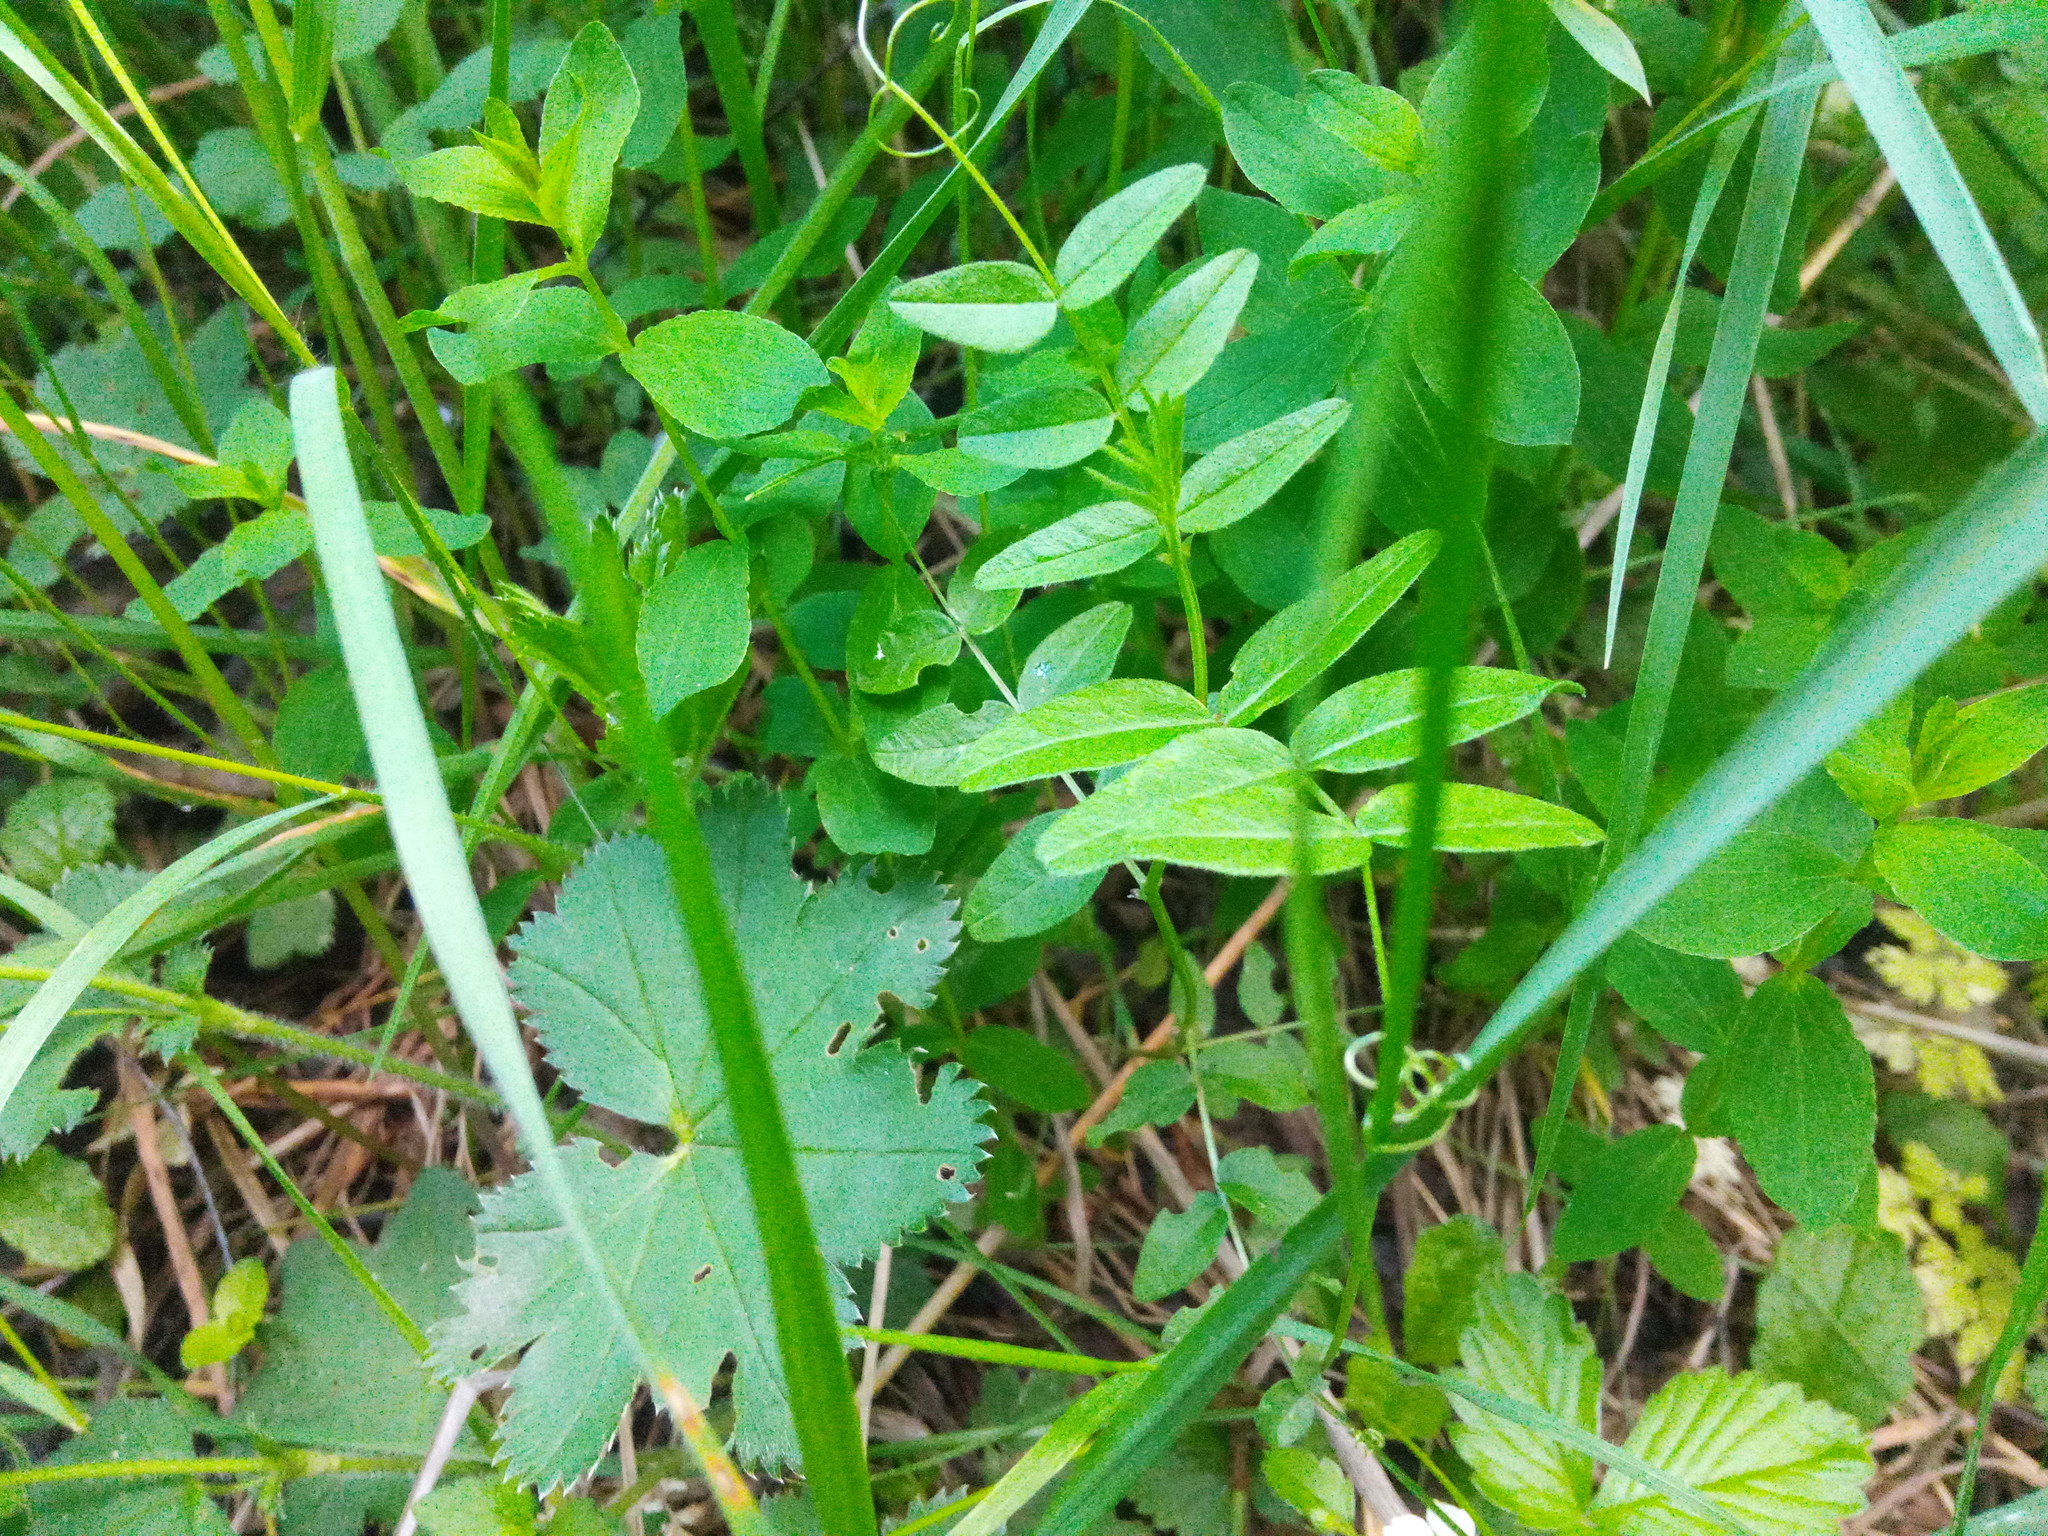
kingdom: Plantae
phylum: Tracheophyta
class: Magnoliopsida
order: Fabales
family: Fabaceae
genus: Vicia
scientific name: Vicia sepium
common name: Bush vetch
